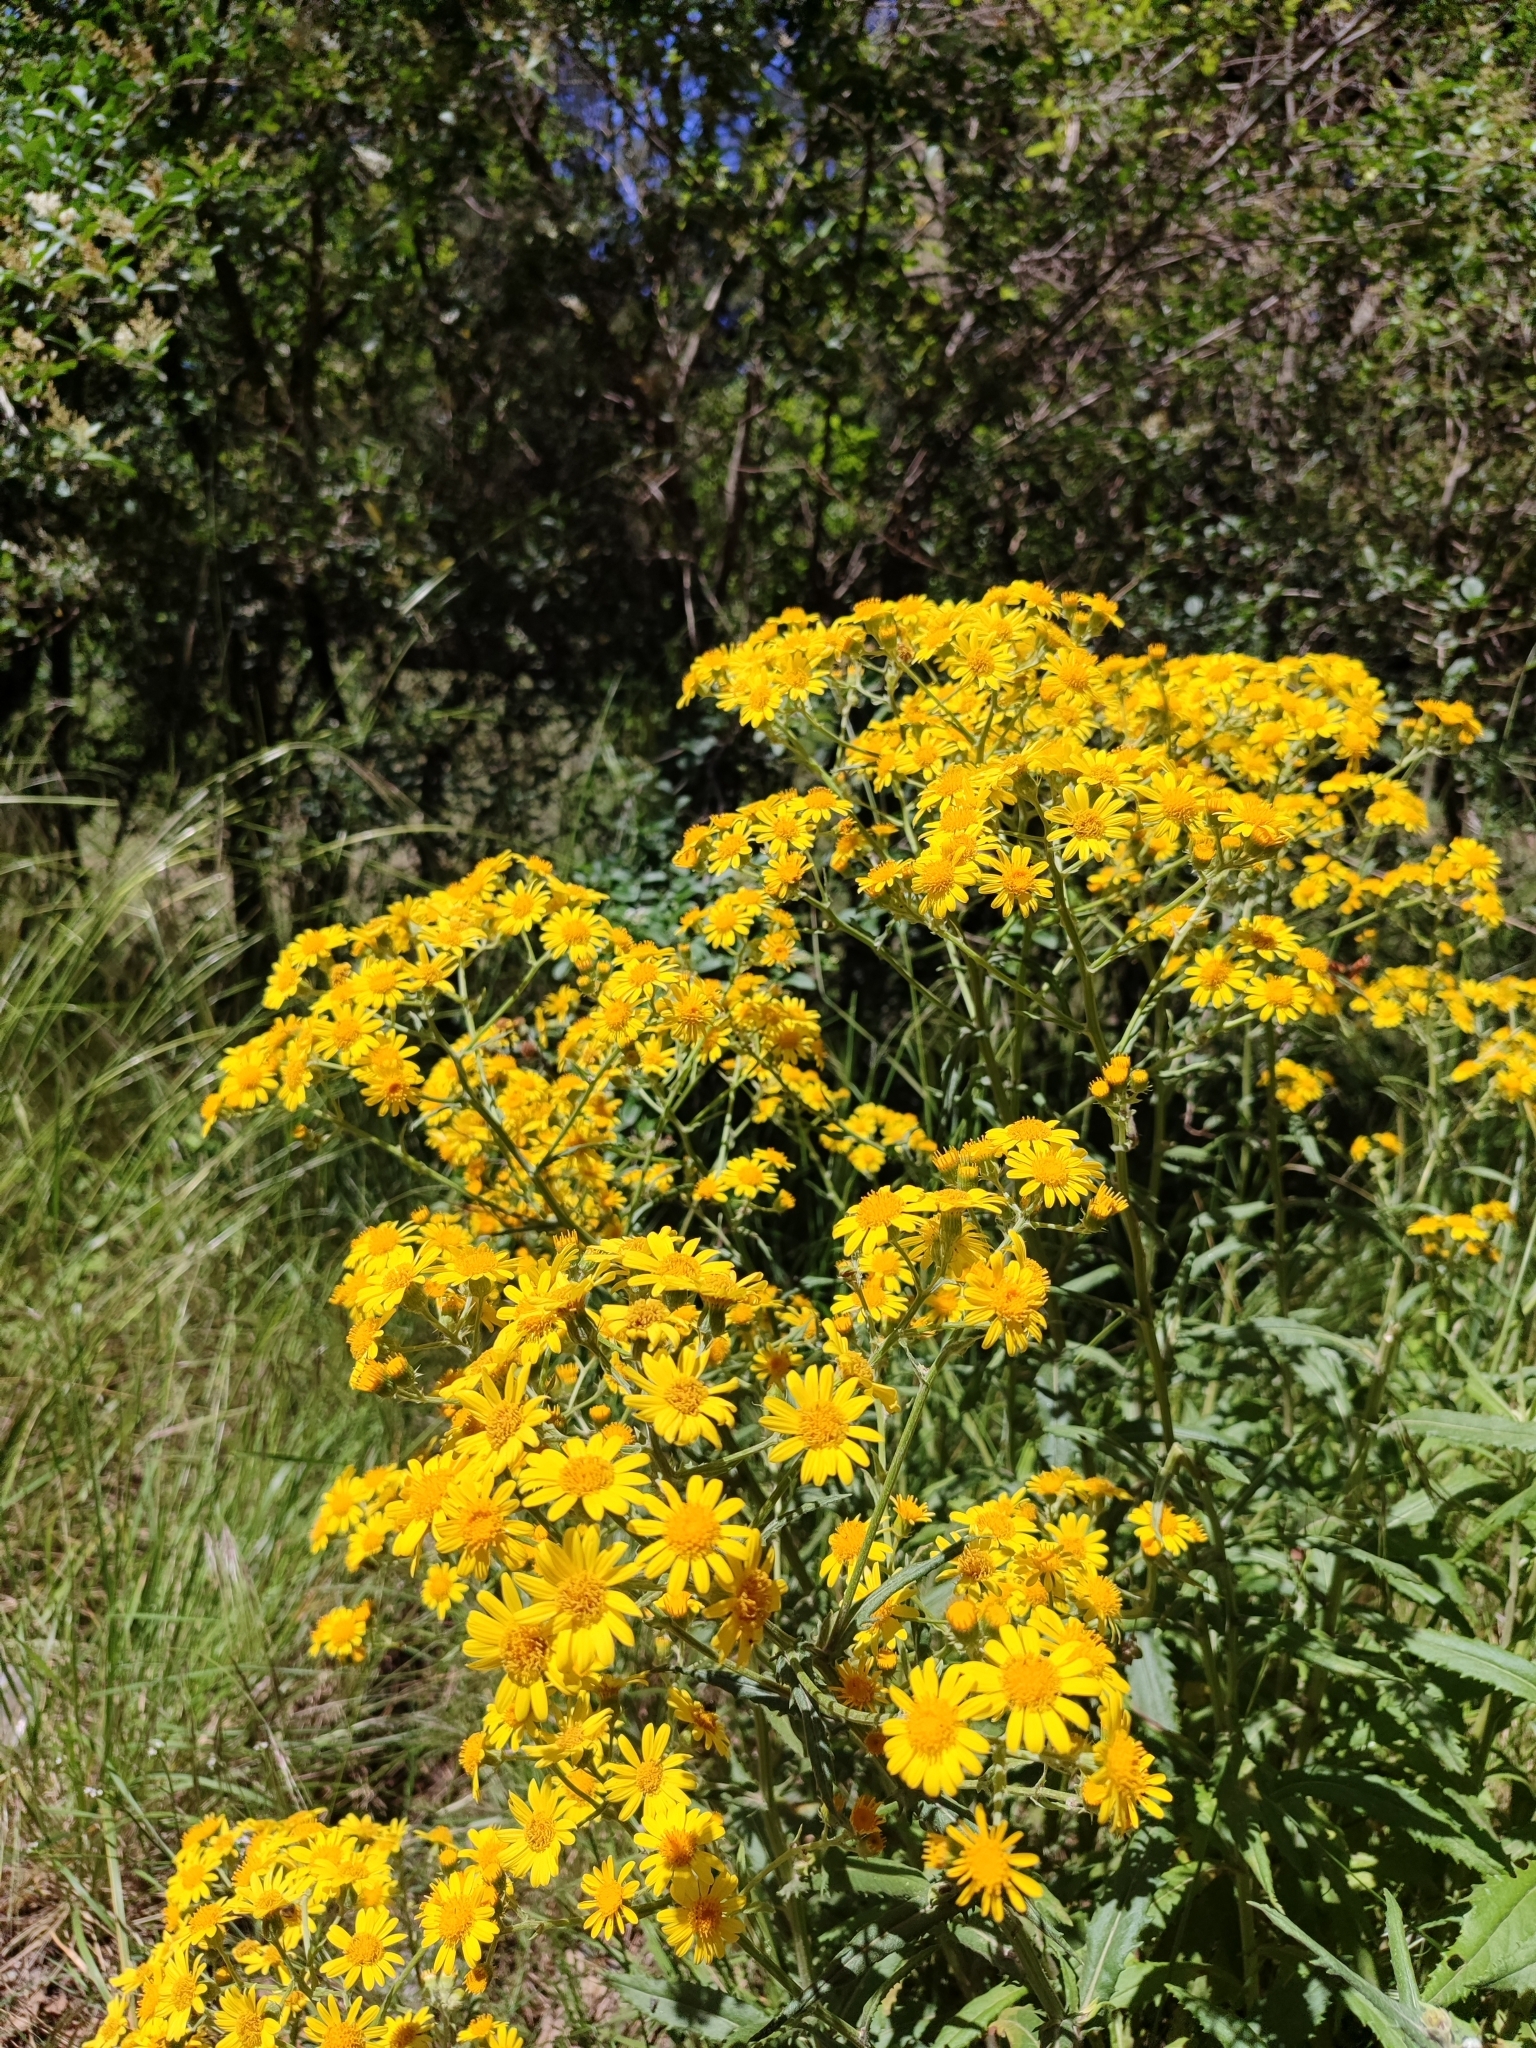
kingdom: Plantae
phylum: Tracheophyta
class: Magnoliopsida
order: Asterales
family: Asteraceae
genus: Senecio
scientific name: Senecio pterophorus
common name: Shoddy ragwort
